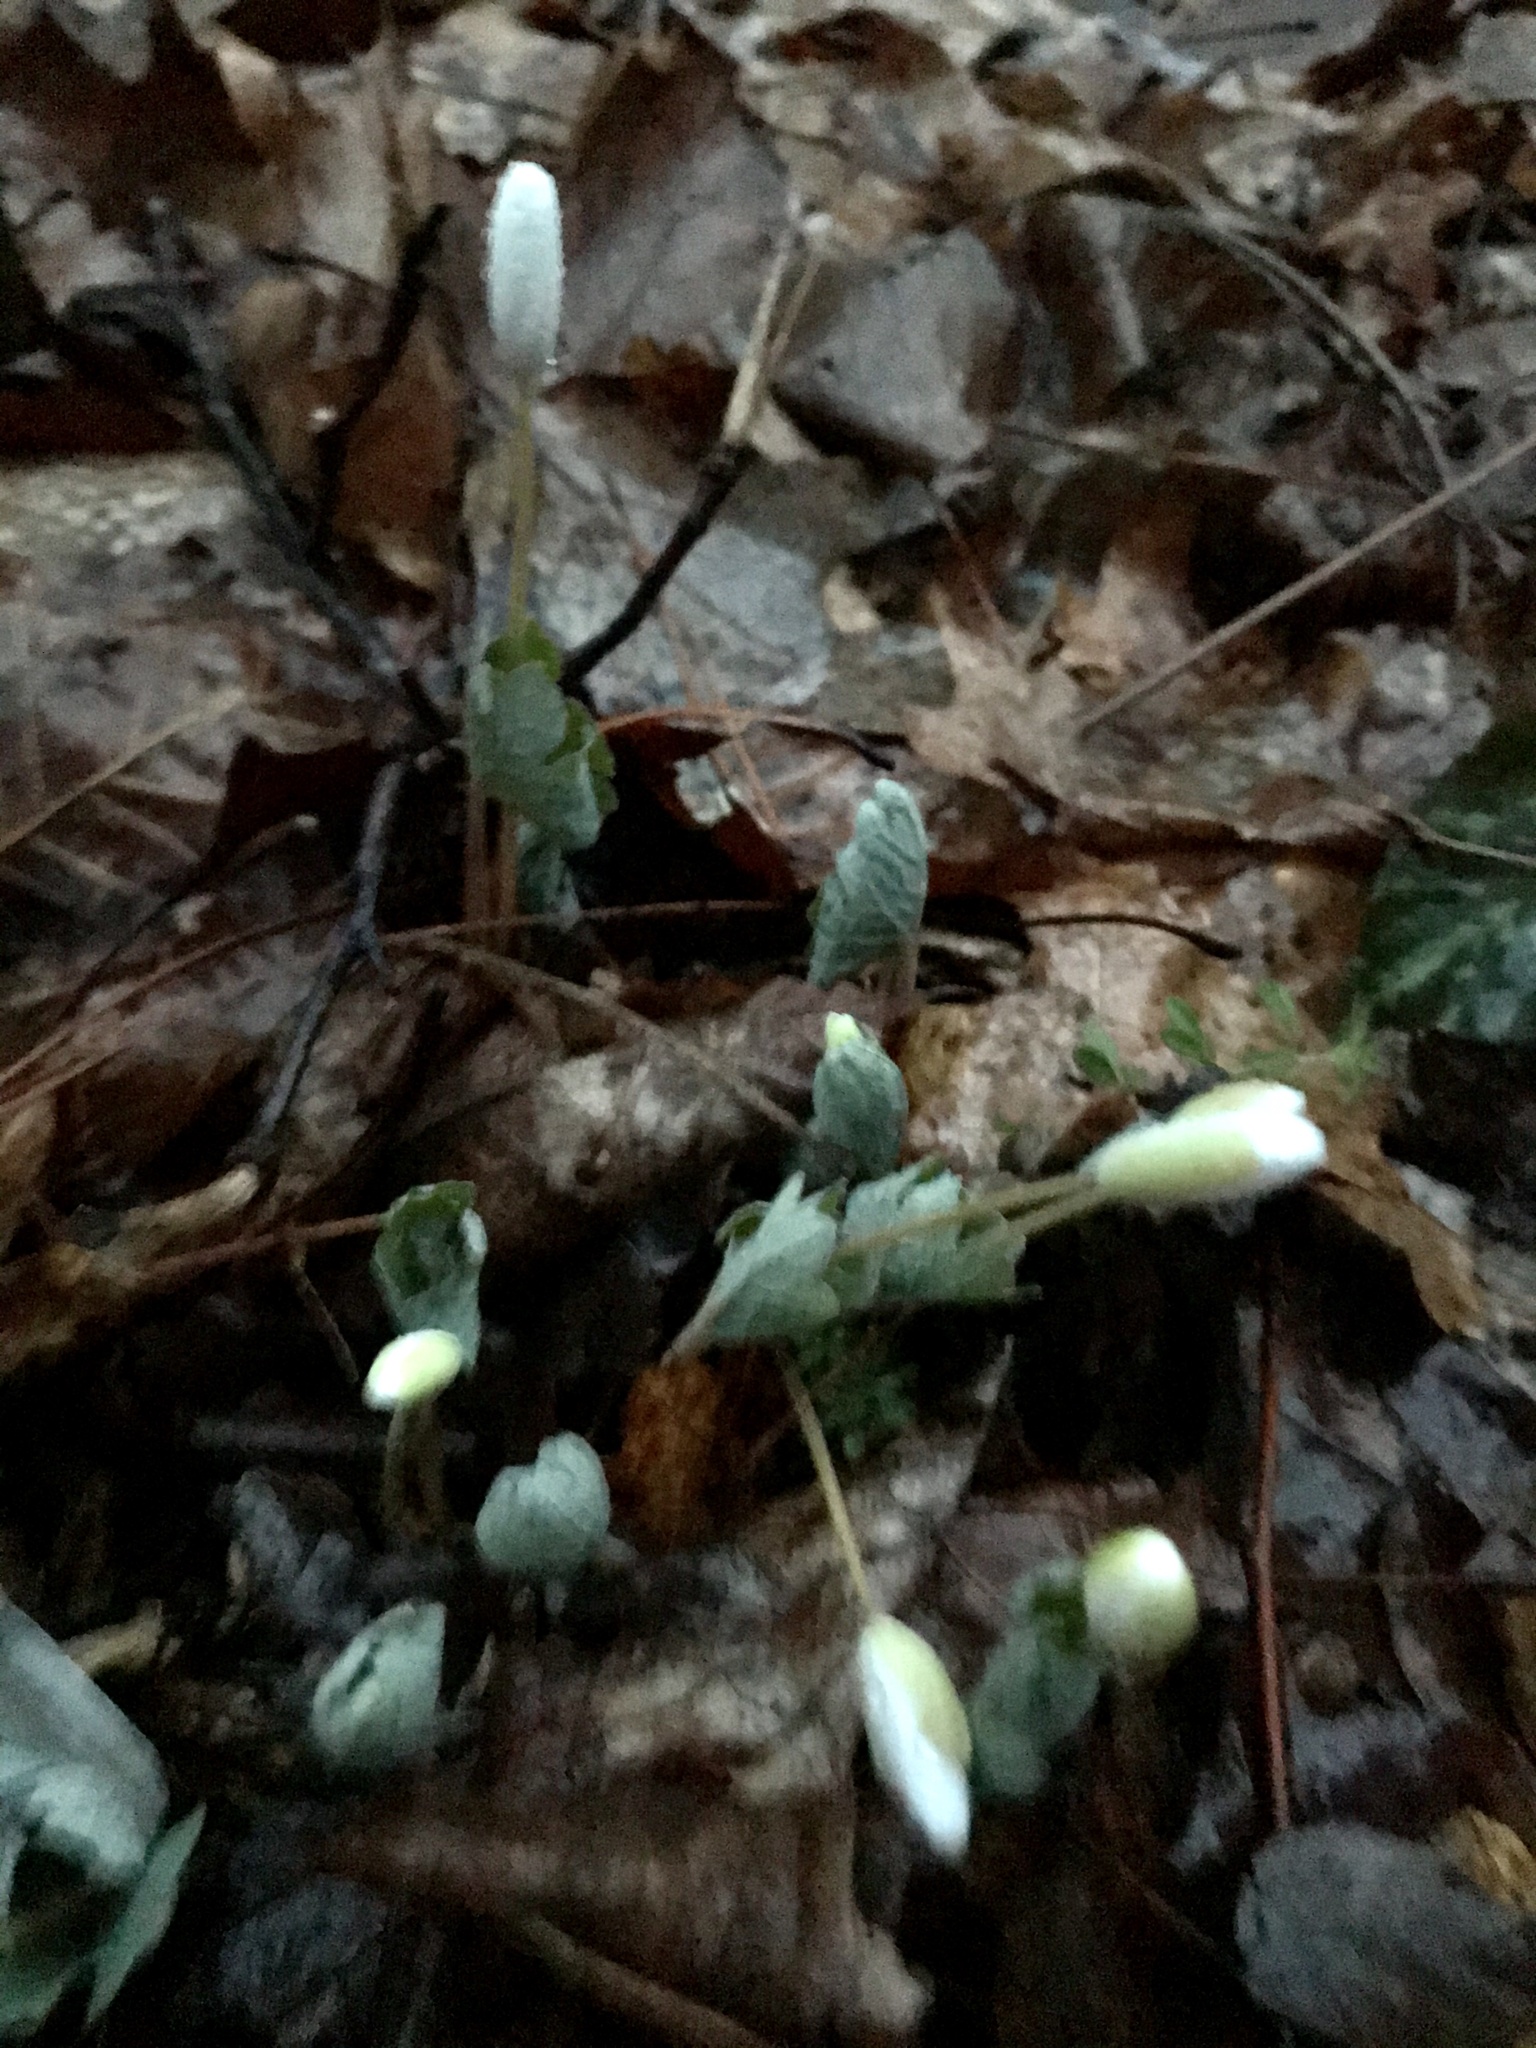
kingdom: Plantae
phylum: Tracheophyta
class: Magnoliopsida
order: Ranunculales
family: Papaveraceae
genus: Sanguinaria
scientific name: Sanguinaria canadensis
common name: Bloodroot
